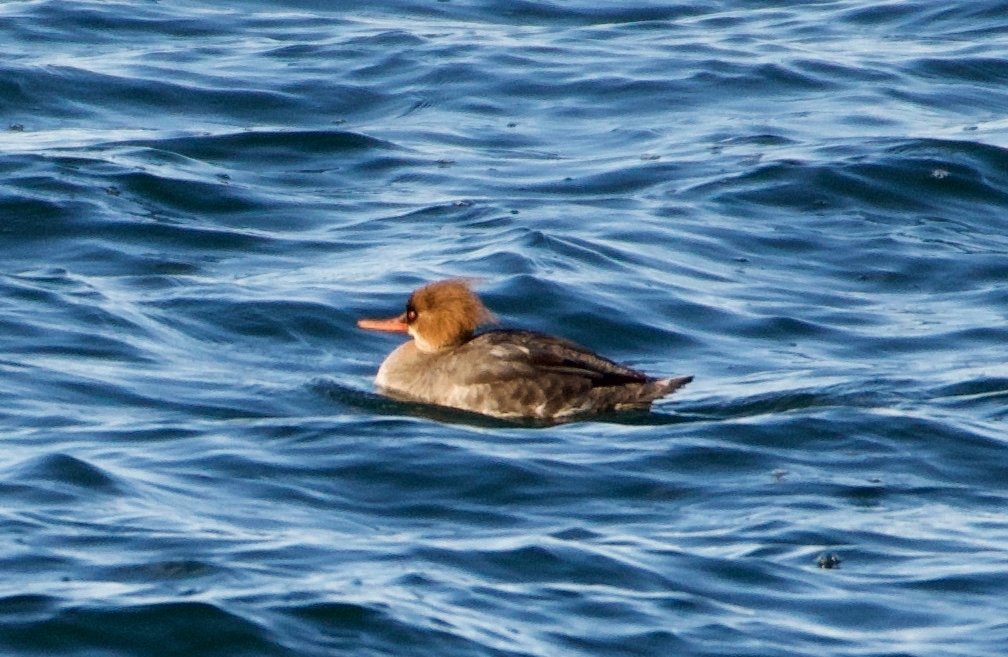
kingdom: Animalia
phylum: Chordata
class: Aves
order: Anseriformes
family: Anatidae
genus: Mergus
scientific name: Mergus serrator
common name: Red-breasted merganser
